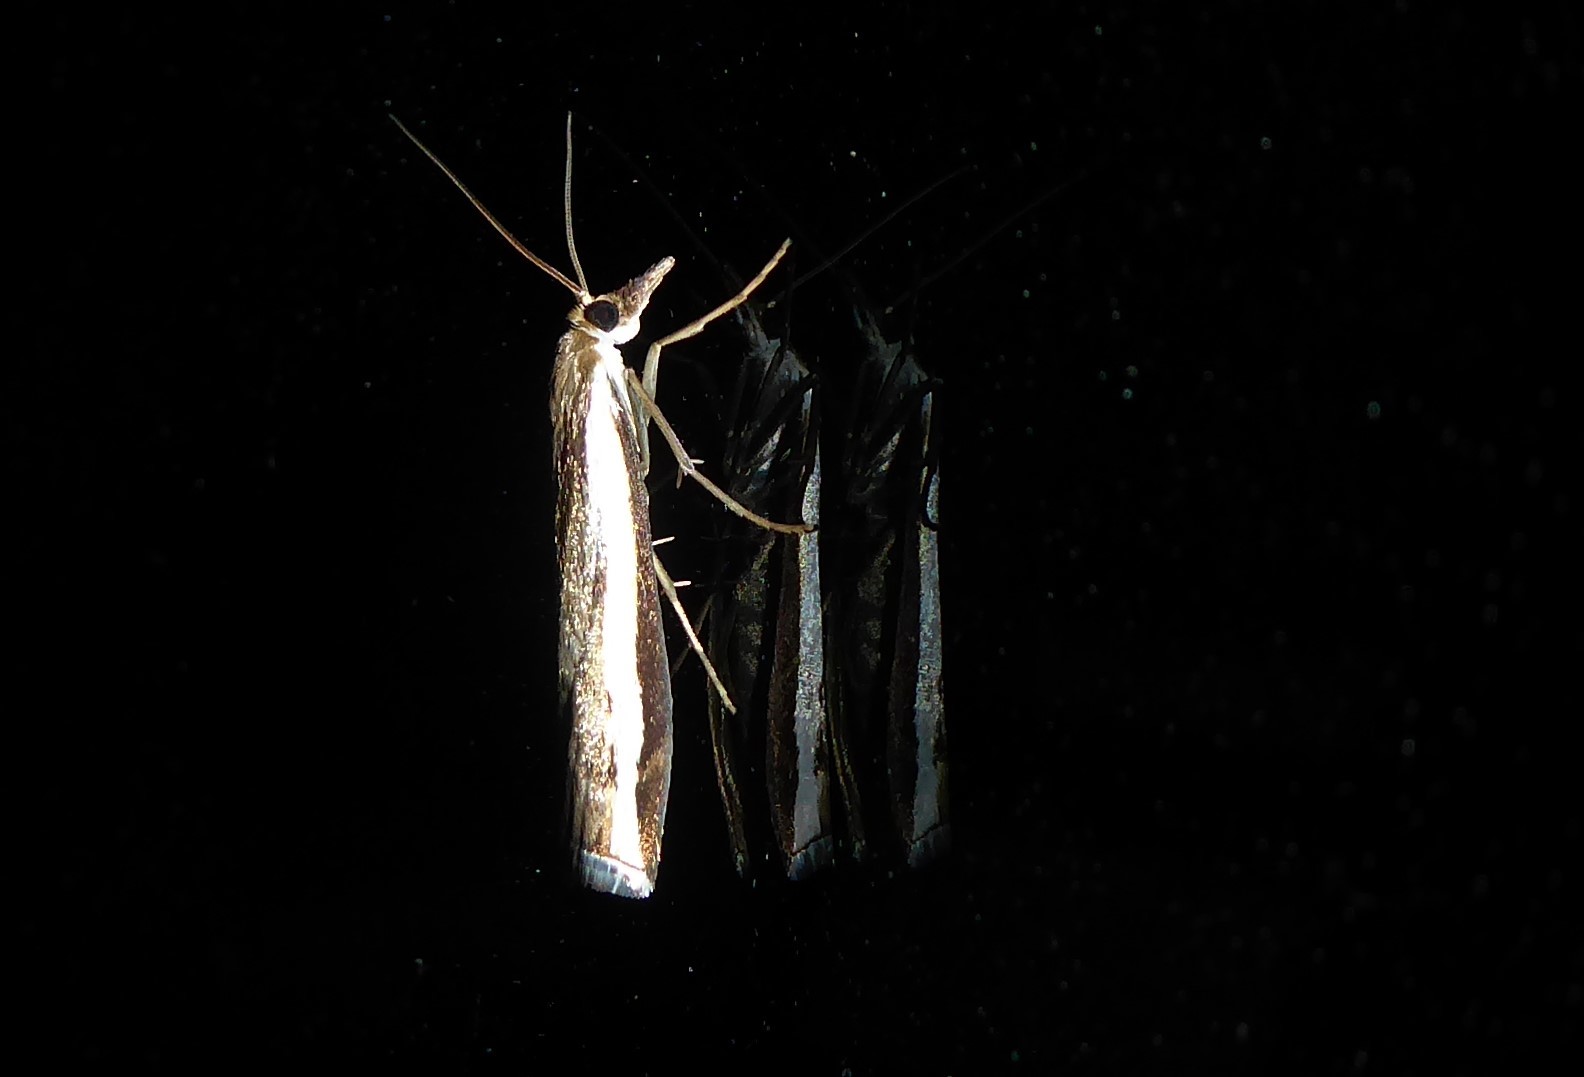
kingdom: Animalia
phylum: Arthropoda
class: Insecta
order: Lepidoptera
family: Crambidae
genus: Orocrambus
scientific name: Orocrambus flexuosellus
